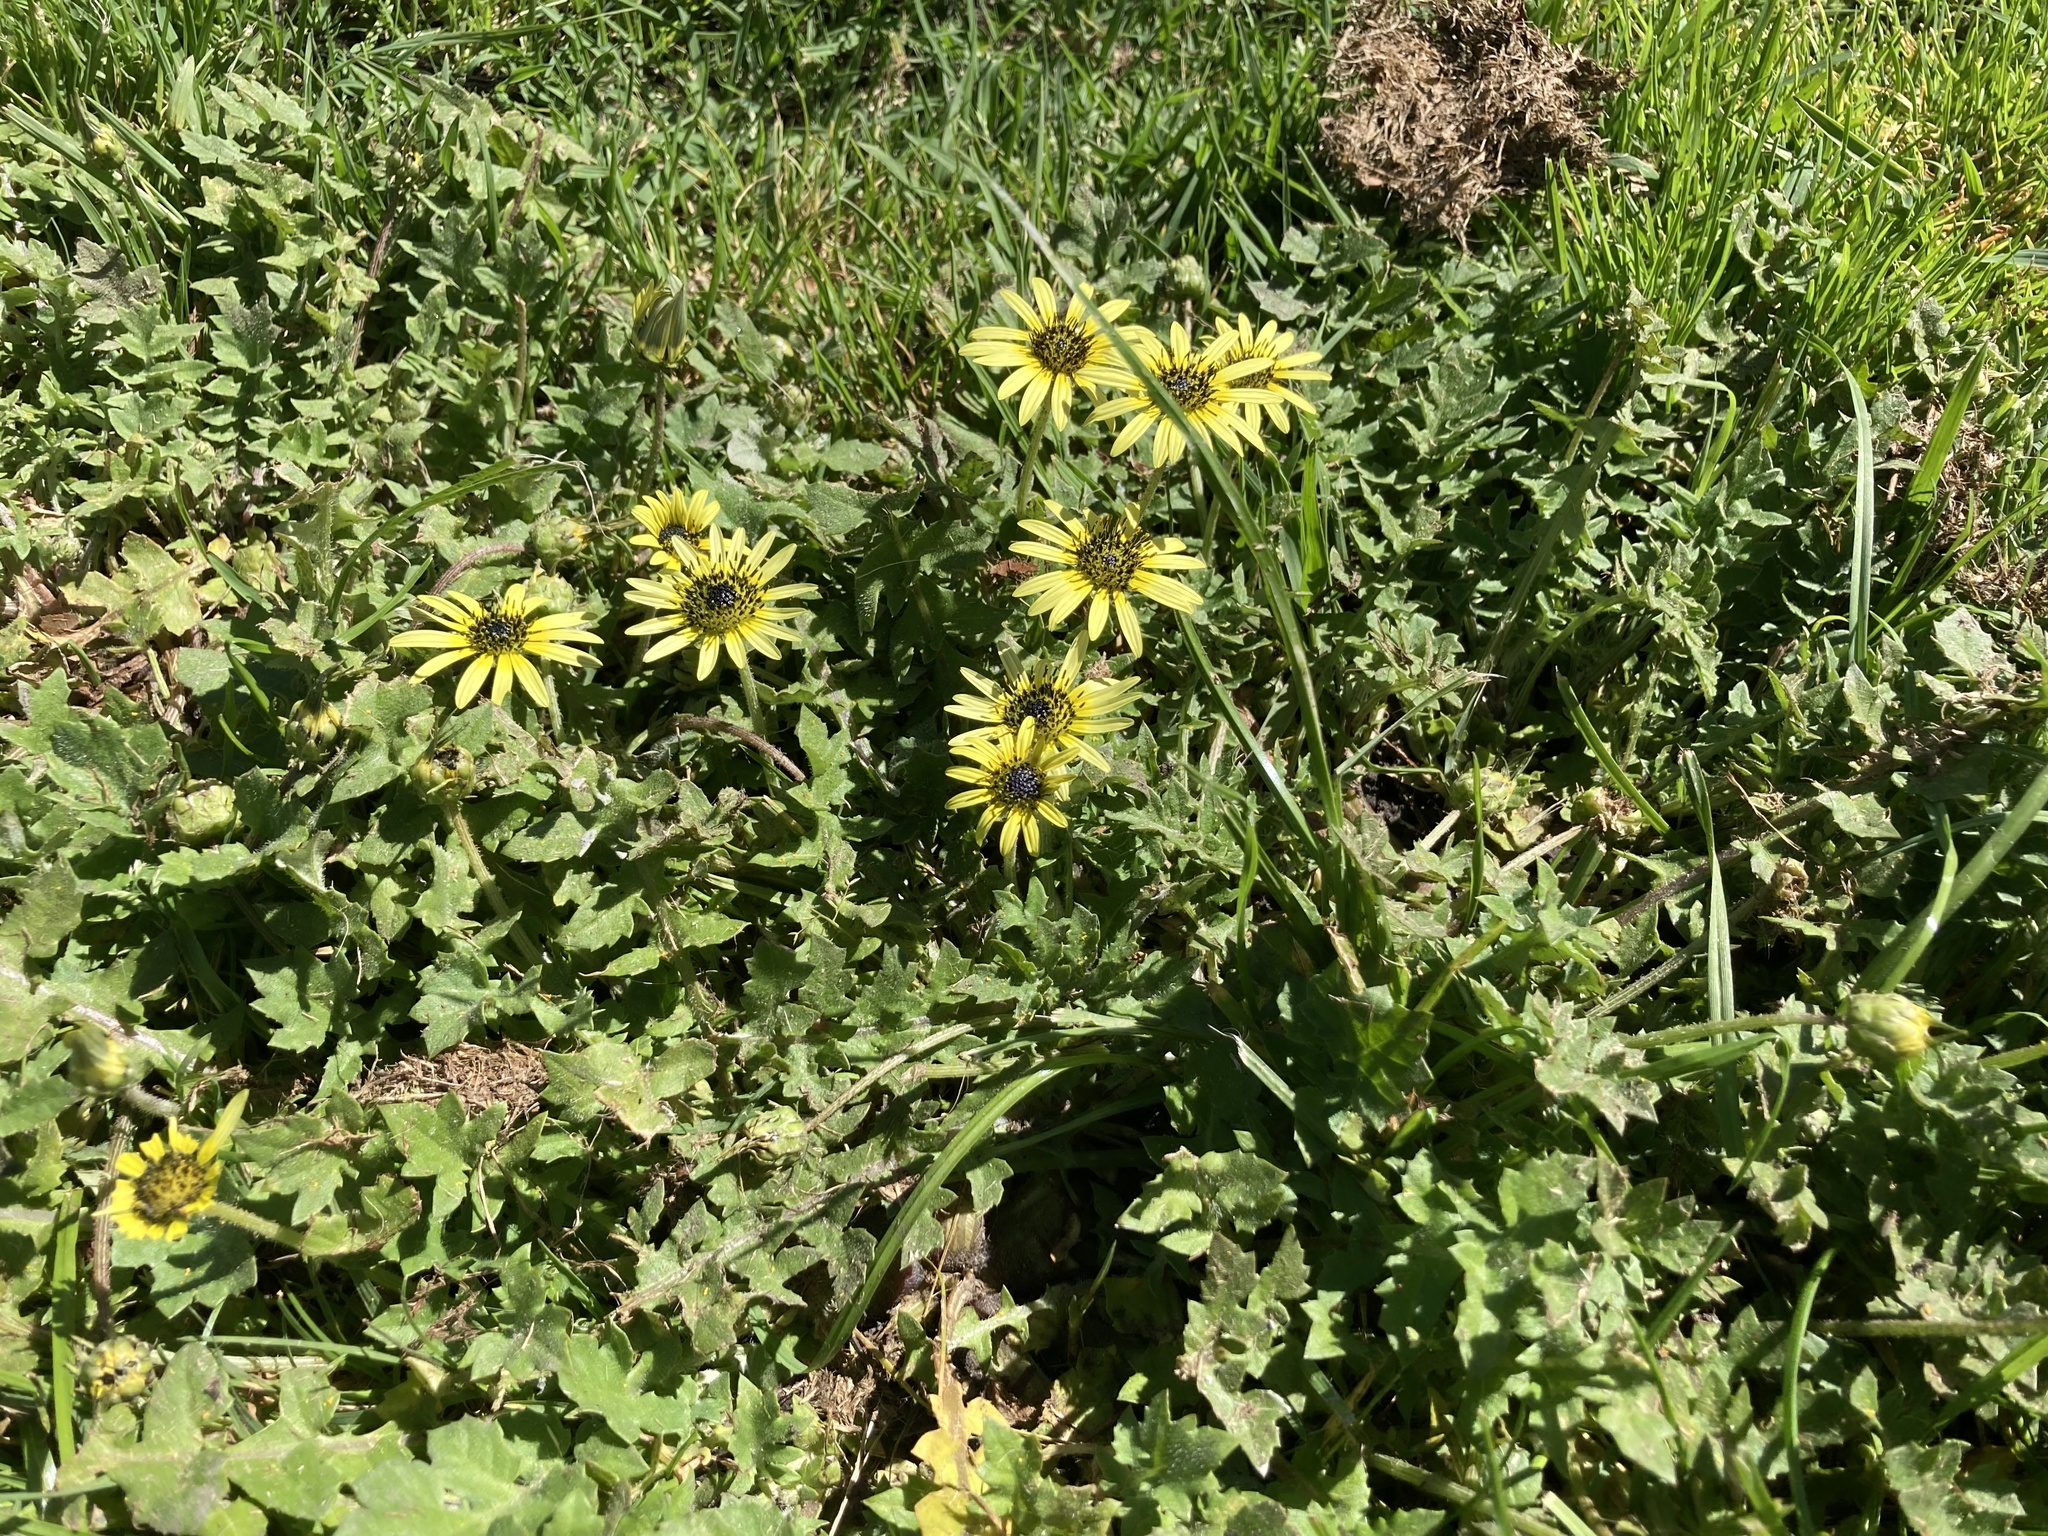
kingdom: Plantae
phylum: Tracheophyta
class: Magnoliopsida
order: Asterales
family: Asteraceae
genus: Arctotheca
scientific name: Arctotheca calendula
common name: Capeweed
